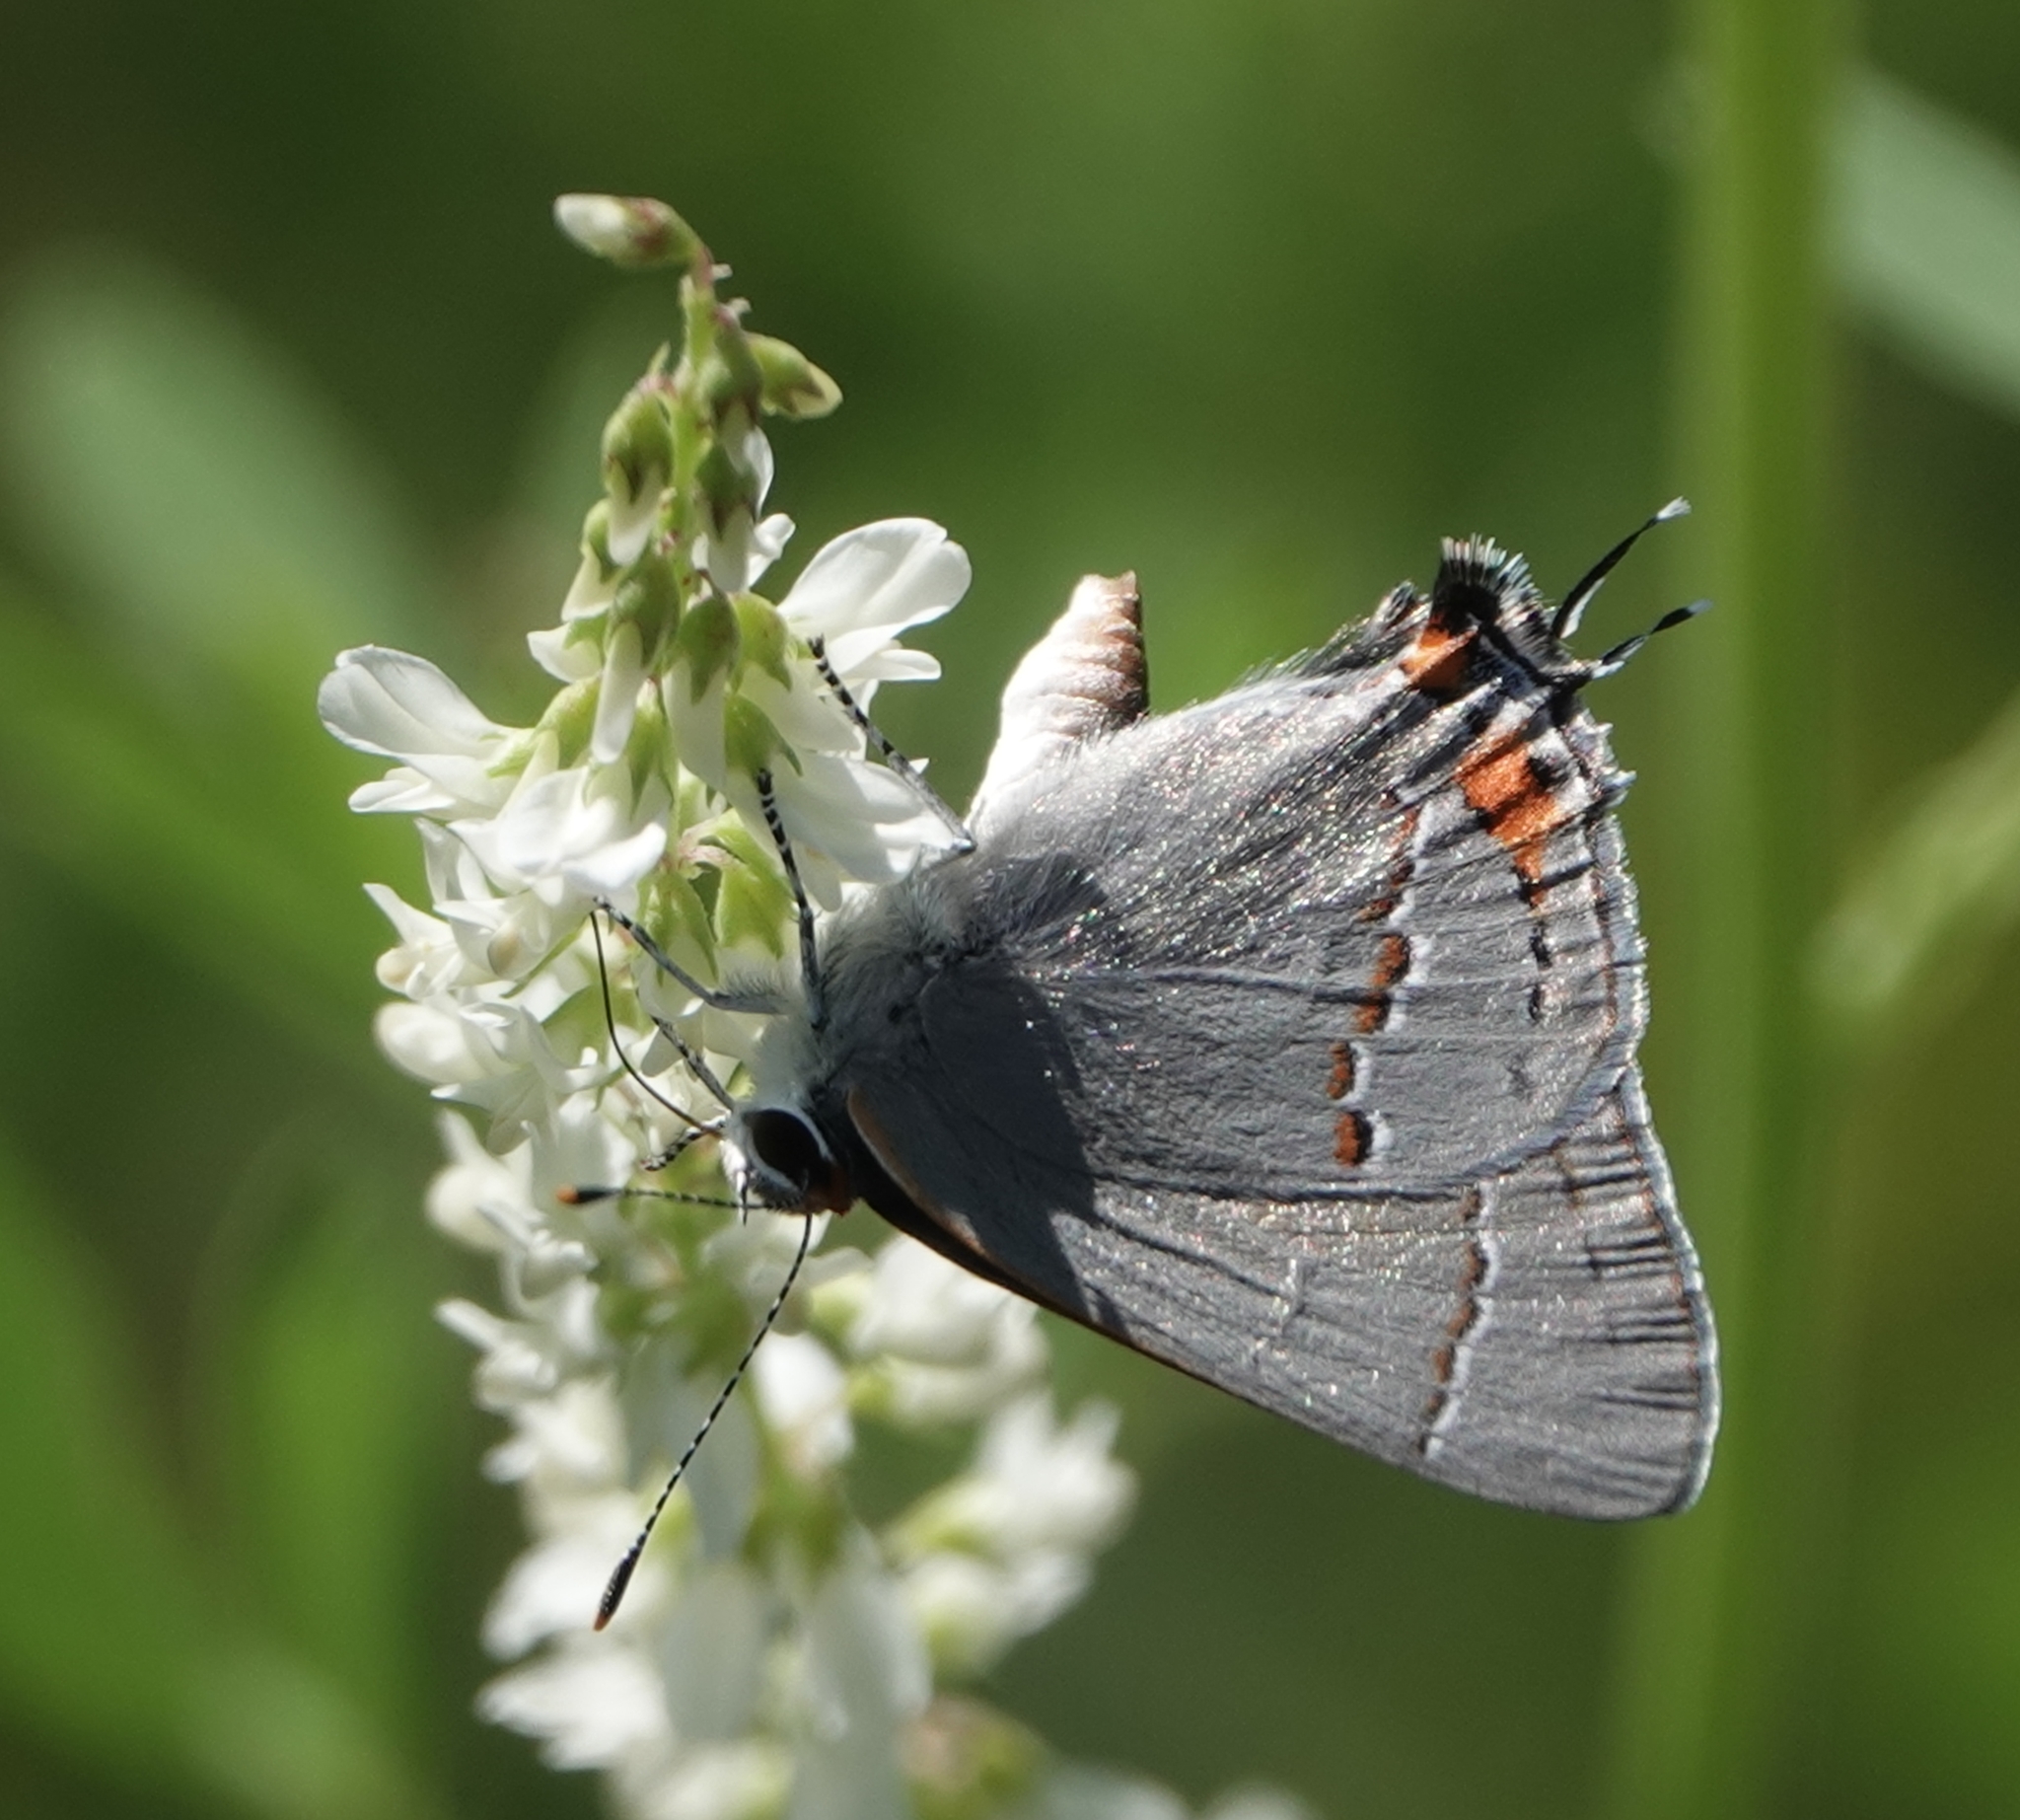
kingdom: Animalia
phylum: Arthropoda
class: Insecta
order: Lepidoptera
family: Lycaenidae
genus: Strymon
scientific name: Strymon melinus
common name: Gray hairstreak
